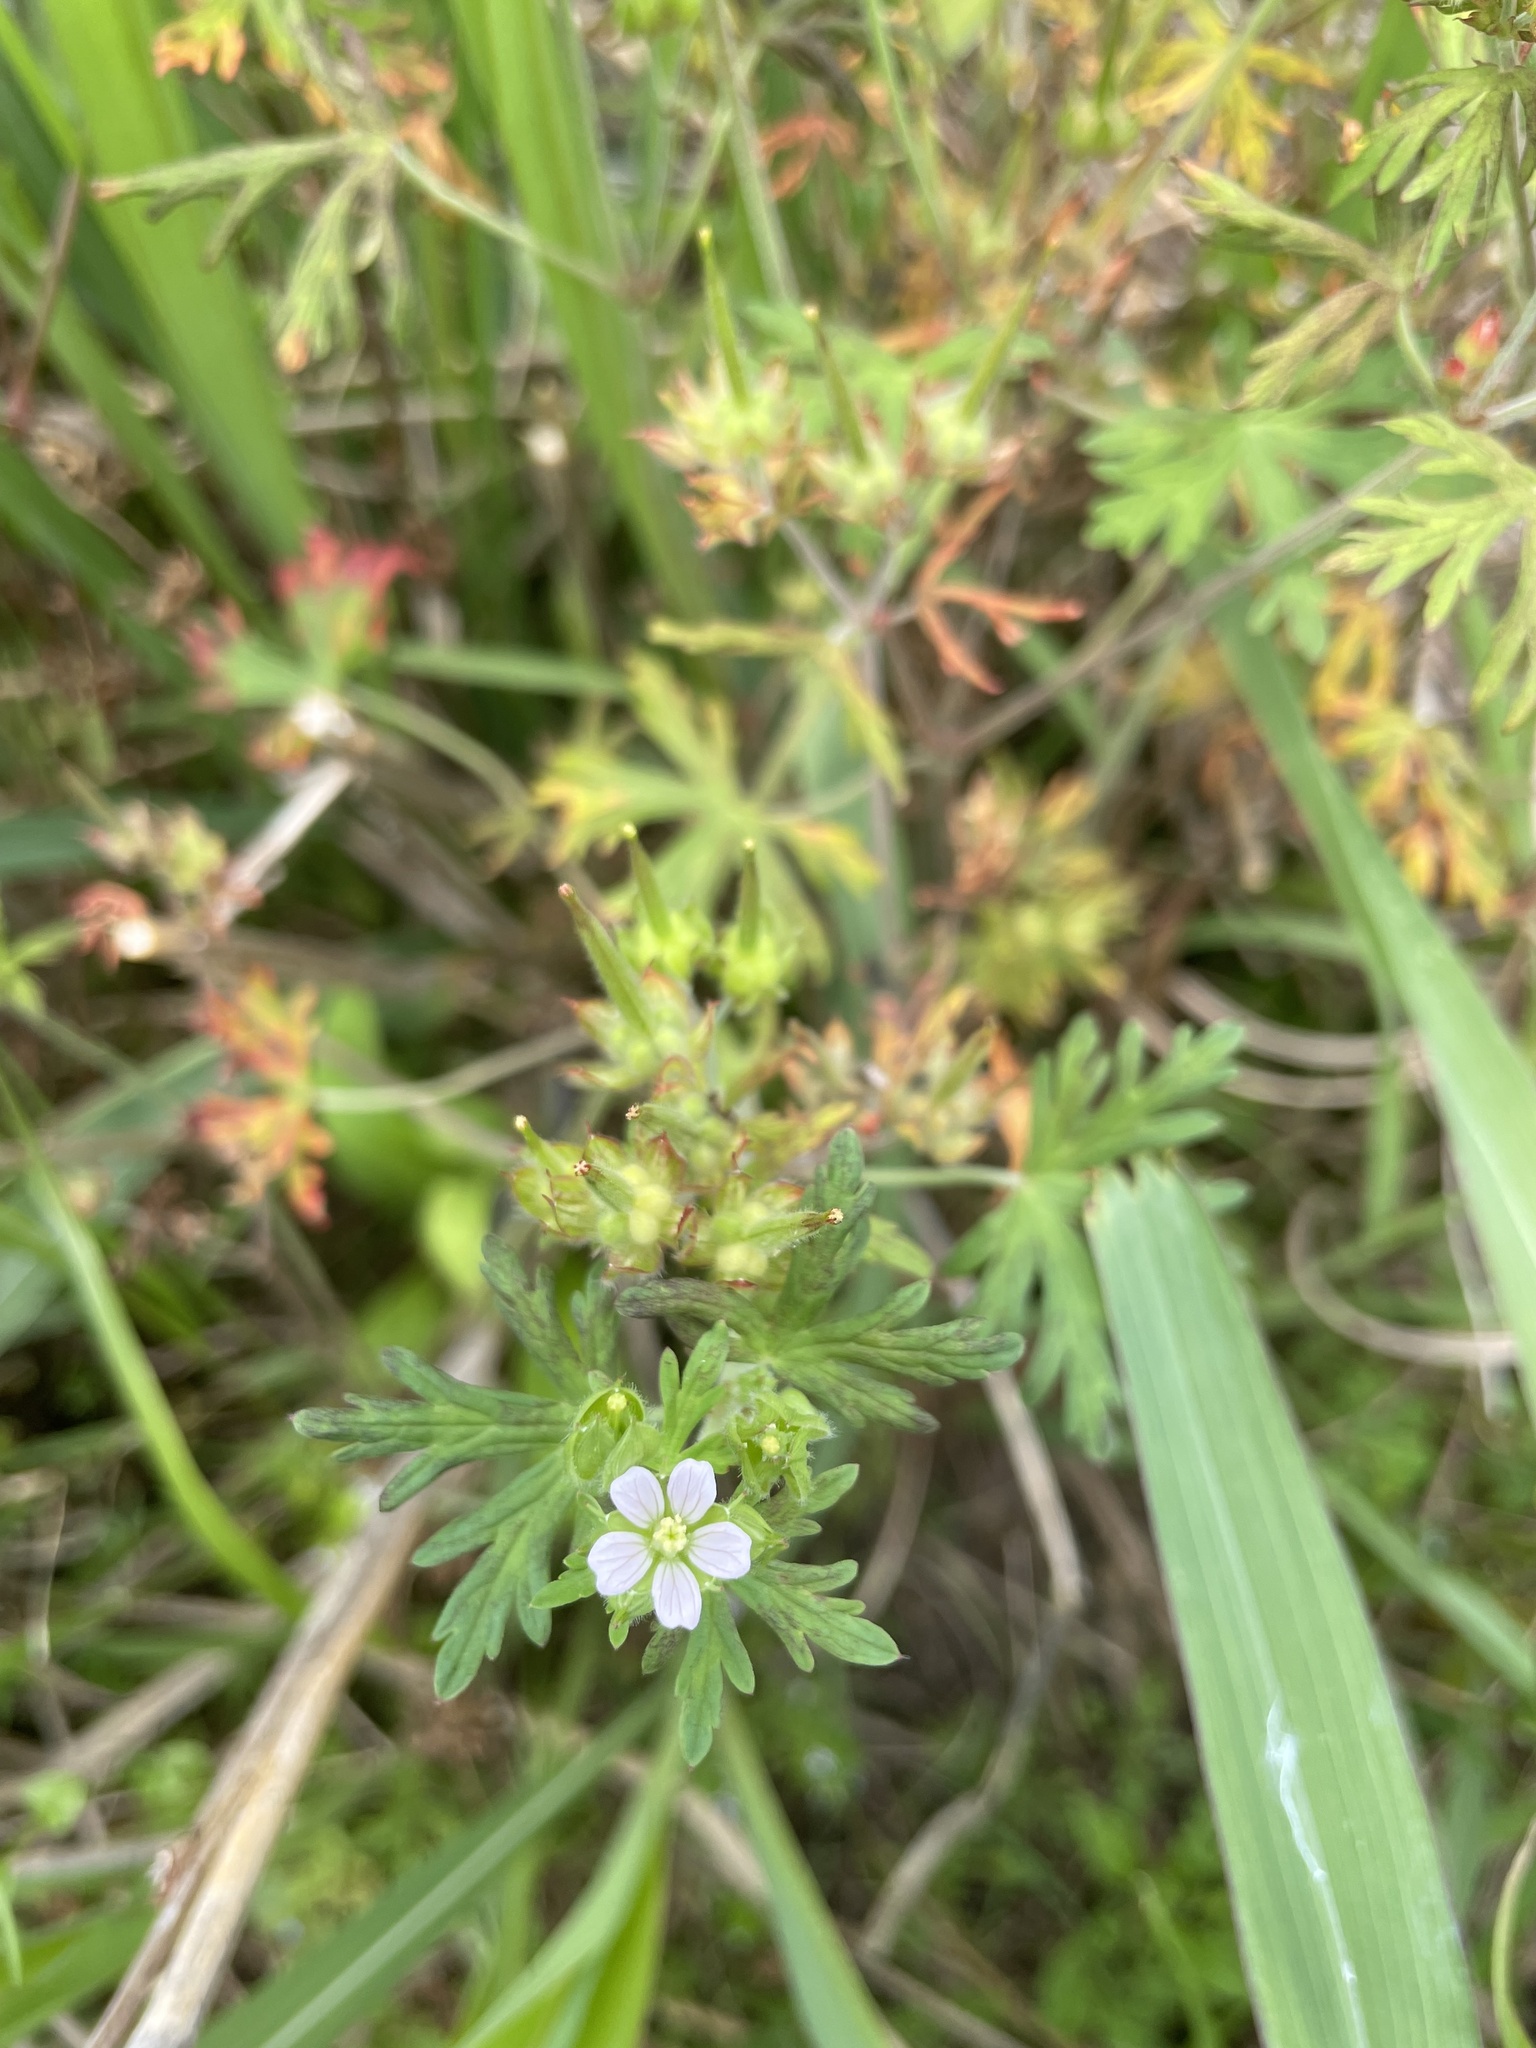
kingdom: Plantae
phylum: Tracheophyta
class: Magnoliopsida
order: Geraniales
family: Geraniaceae
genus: Geranium
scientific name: Geranium carolinianum
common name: Carolina crane's-bill
